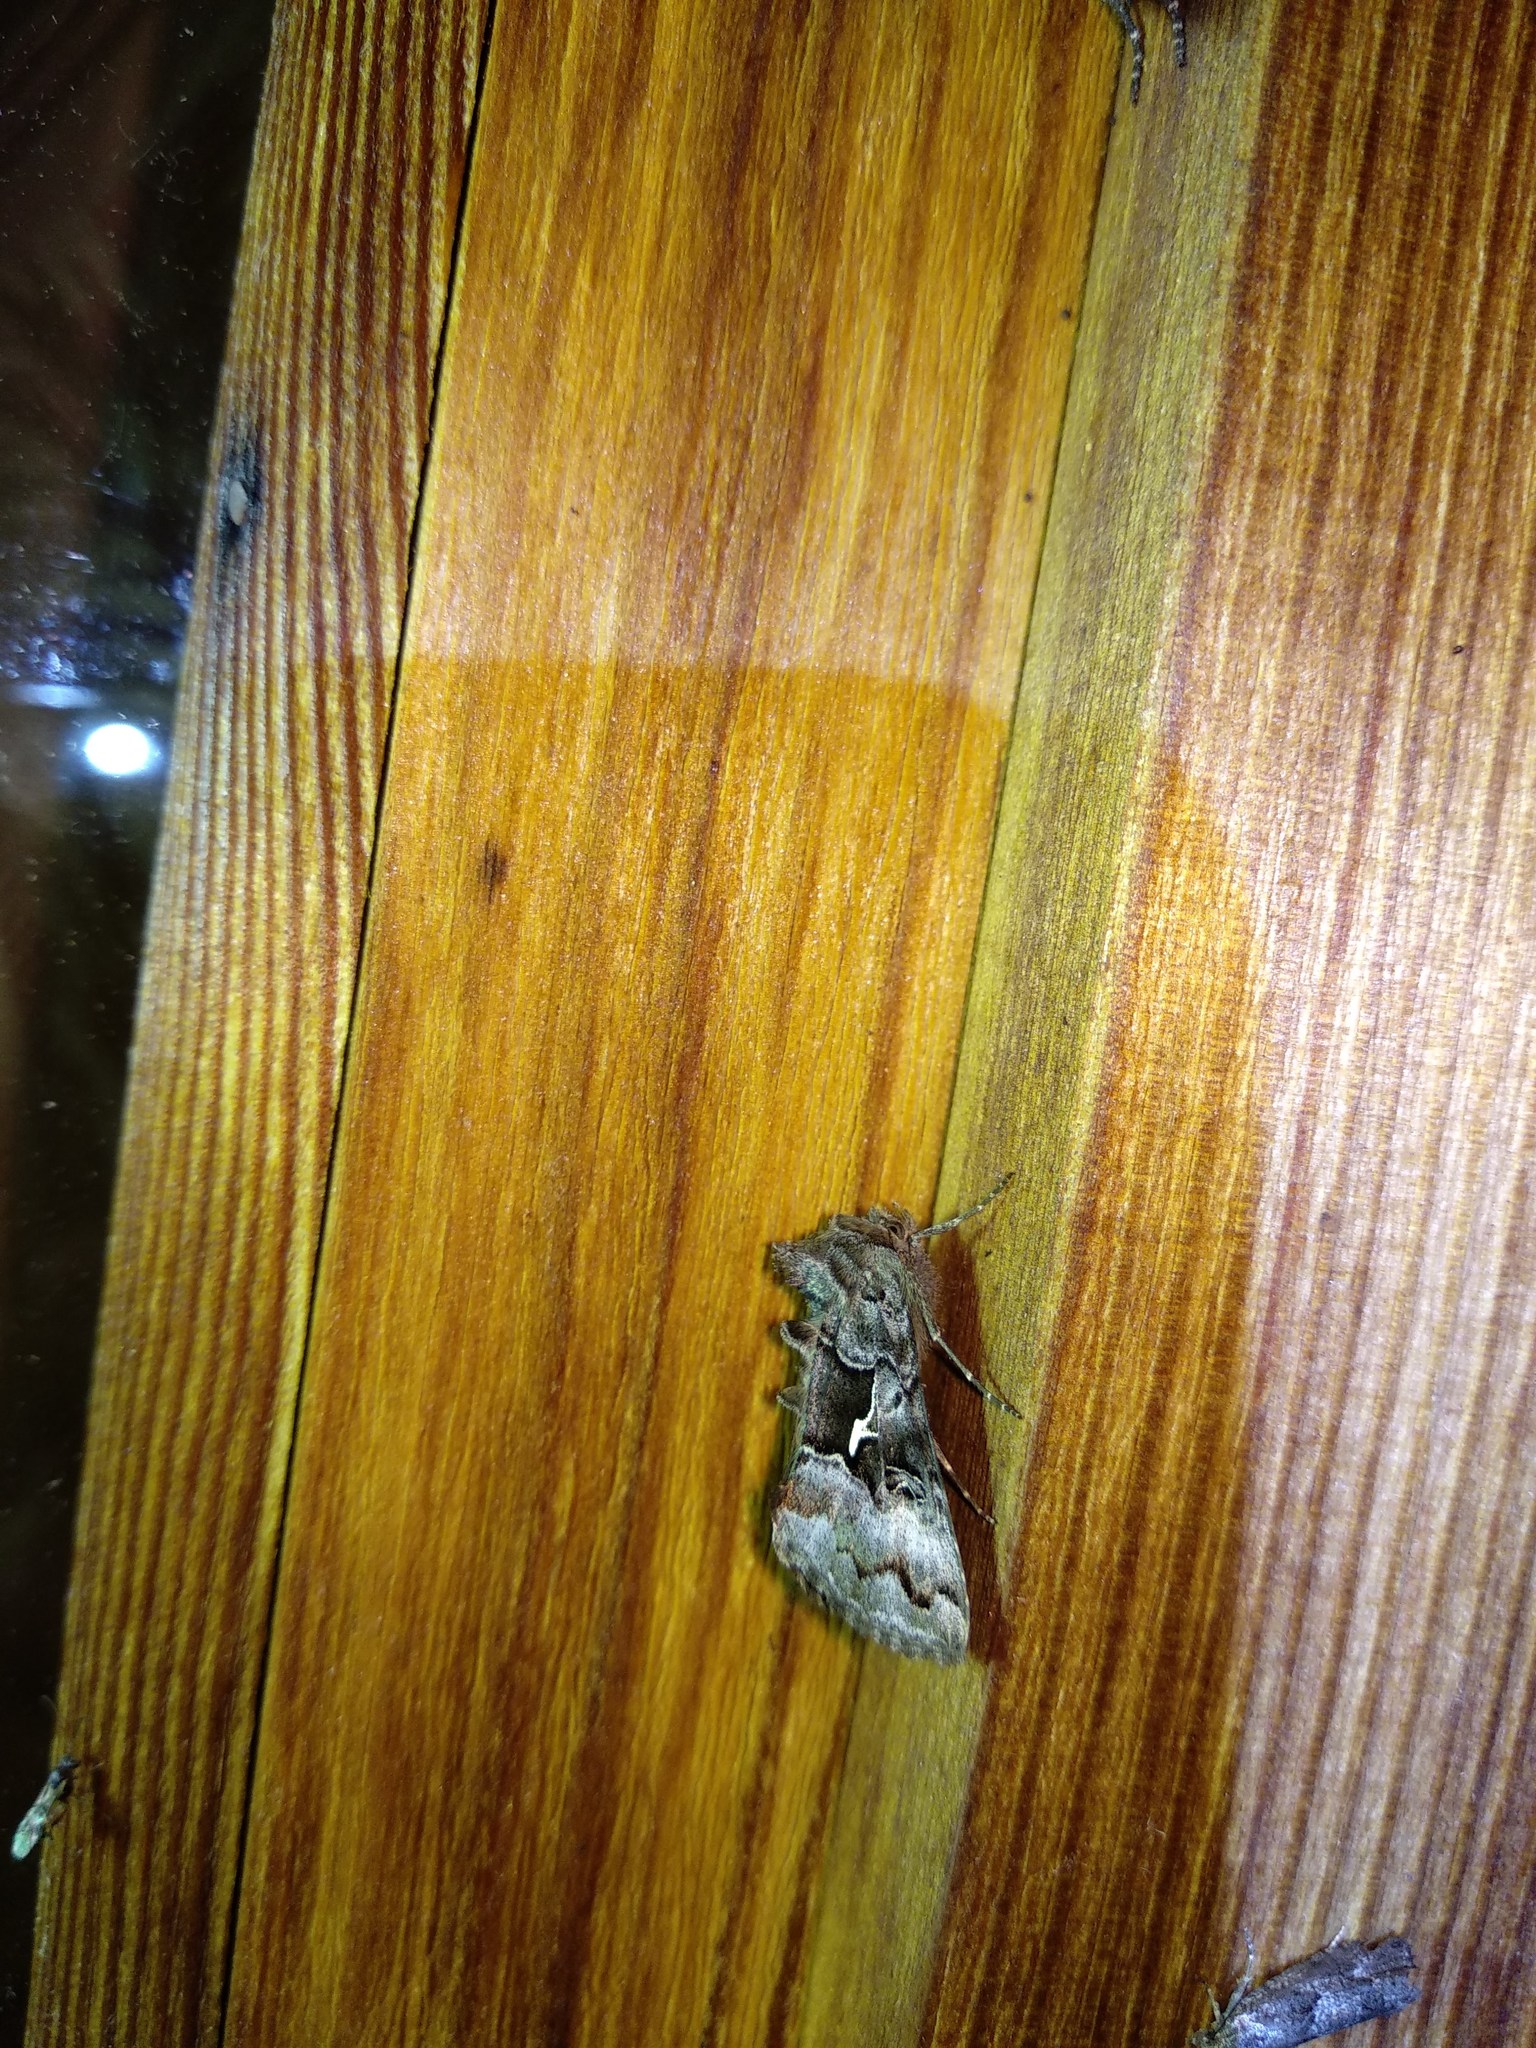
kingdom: Animalia
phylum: Arthropoda
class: Insecta
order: Lepidoptera
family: Noctuidae
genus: Syngrapha
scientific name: Syngrapha ain
